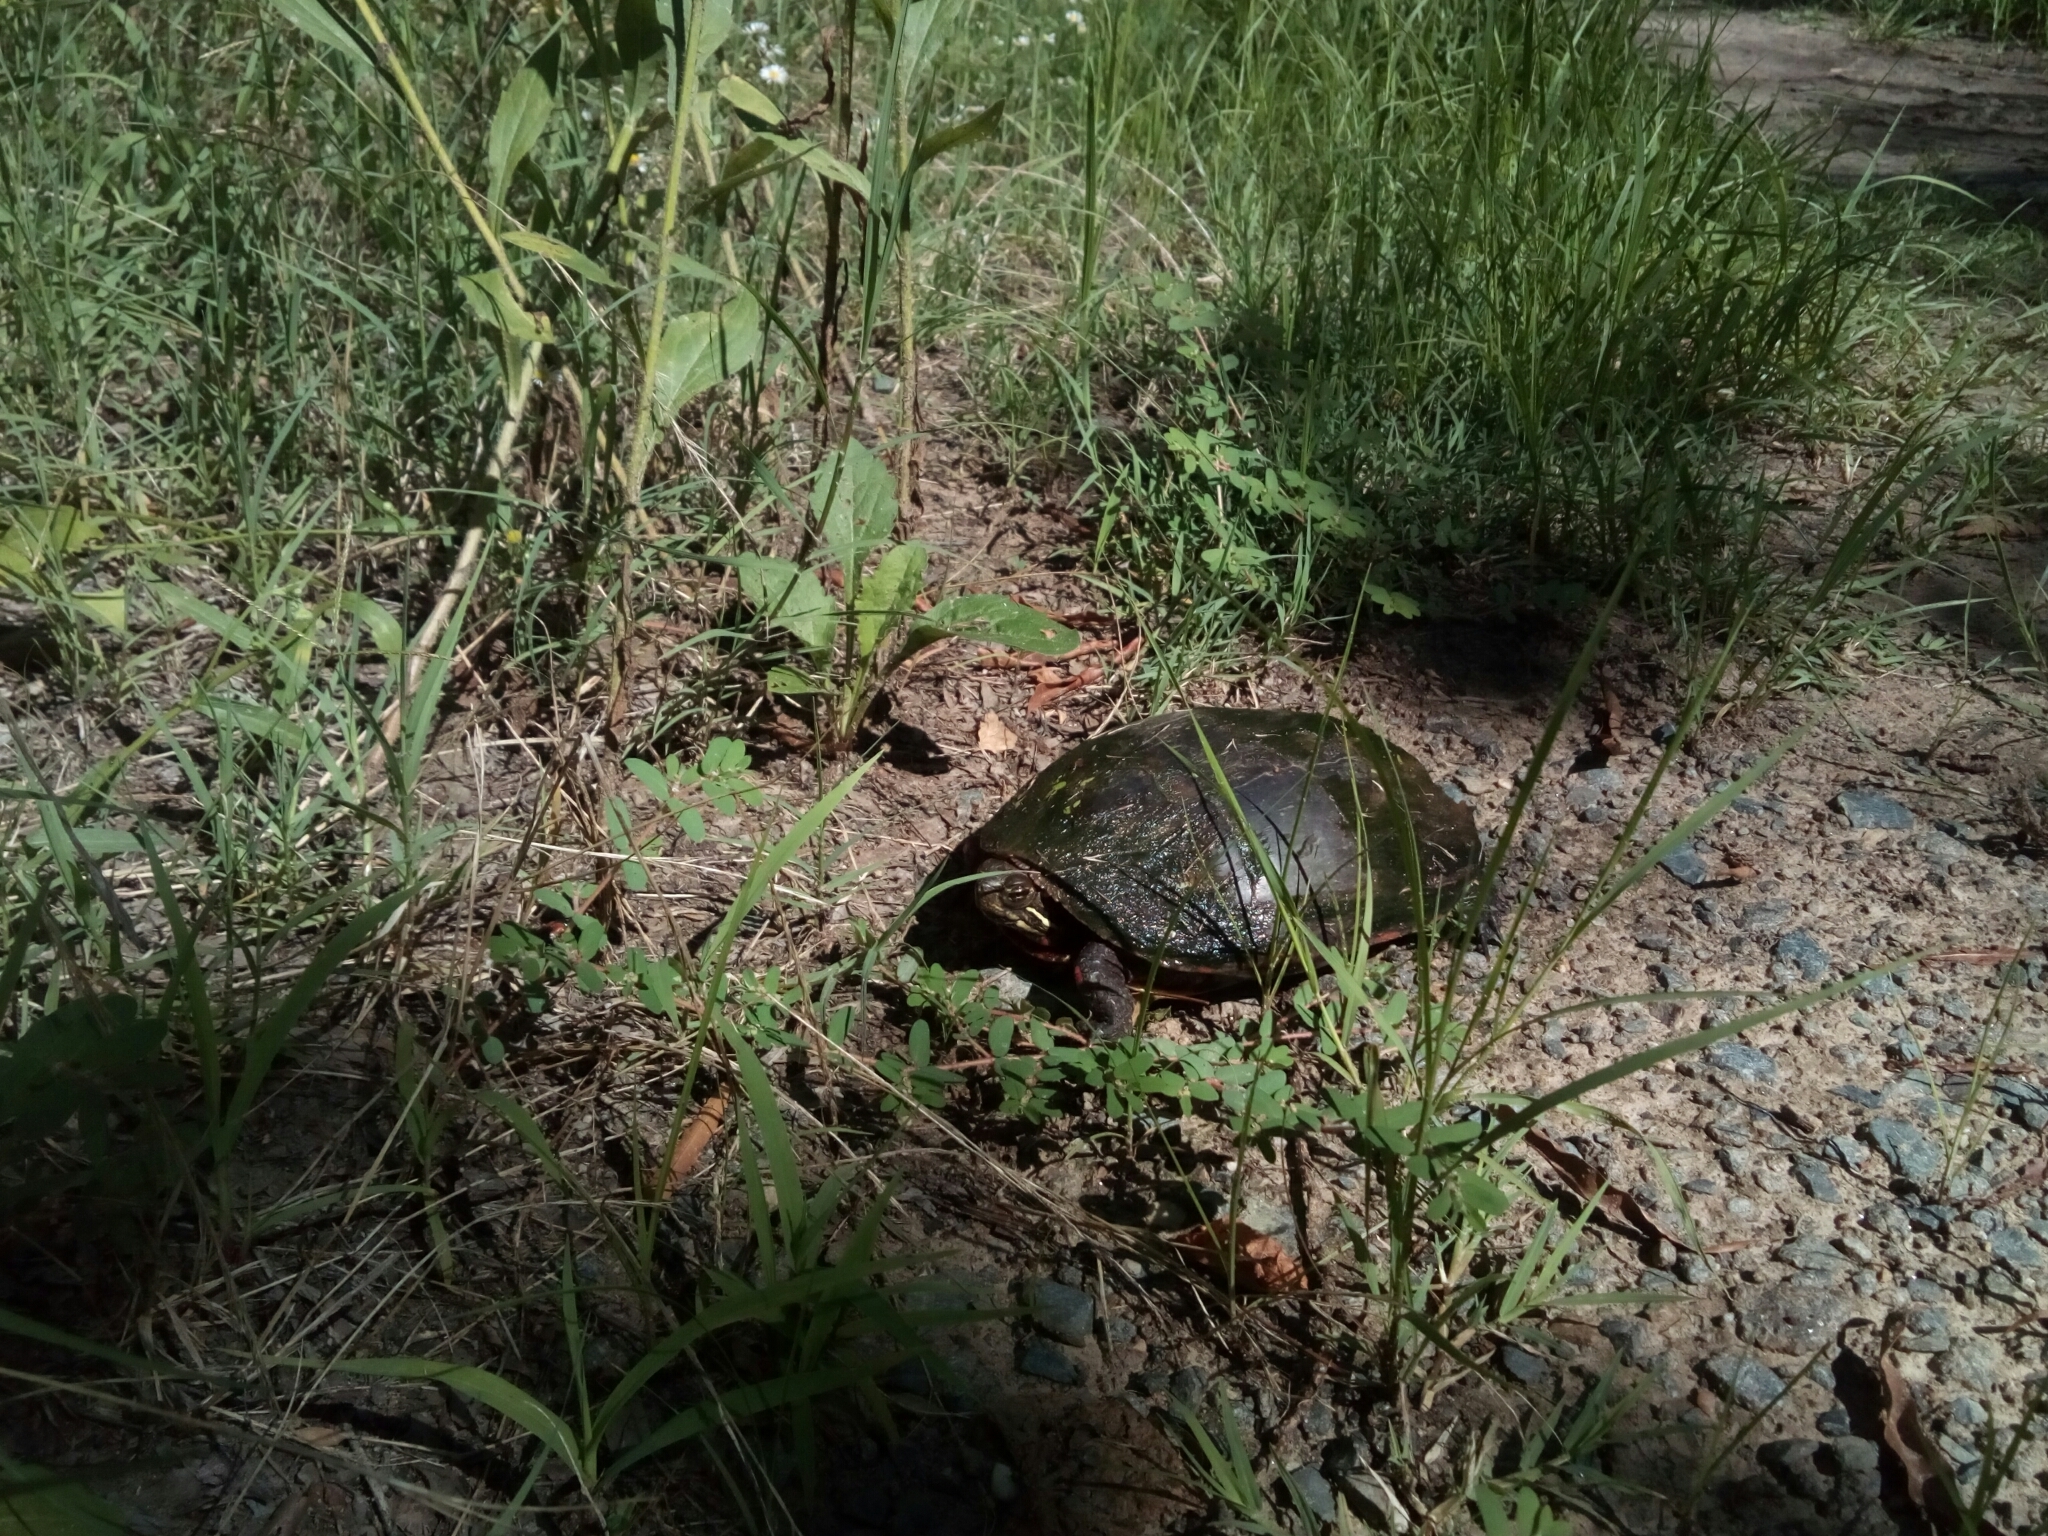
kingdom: Animalia
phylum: Chordata
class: Testudines
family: Emydidae
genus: Chrysemys
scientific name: Chrysemys picta
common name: Painted turtle
